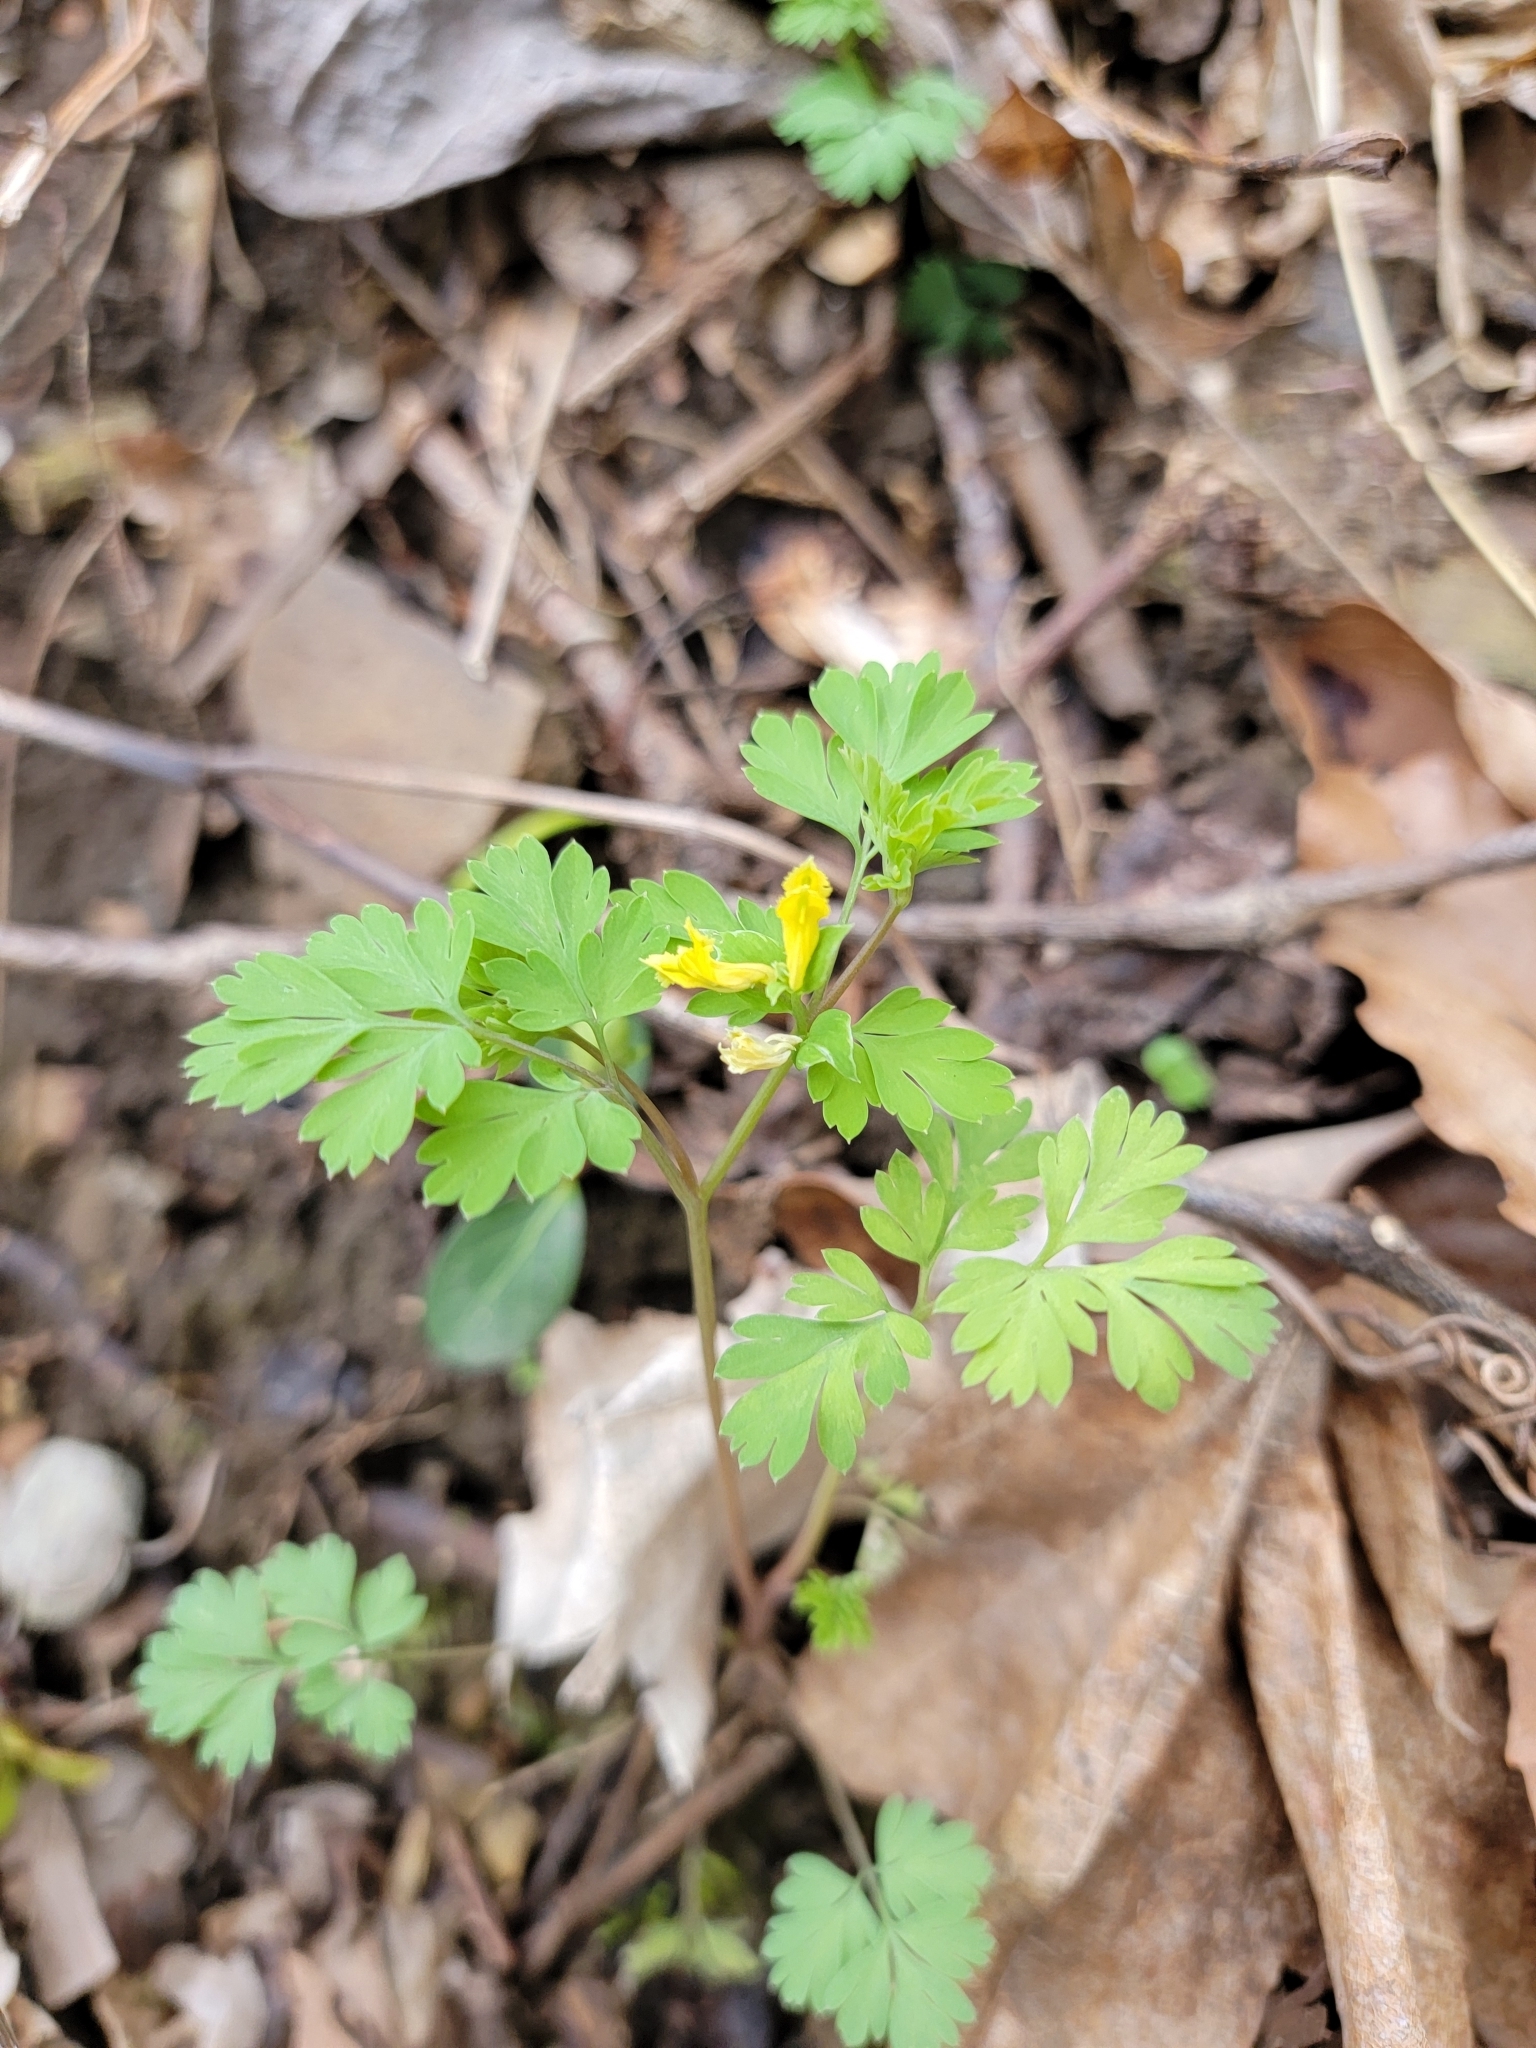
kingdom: Plantae
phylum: Tracheophyta
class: Magnoliopsida
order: Ranunculales
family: Papaveraceae
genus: Corydalis
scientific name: Corydalis flavula
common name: Yellow corydalis
